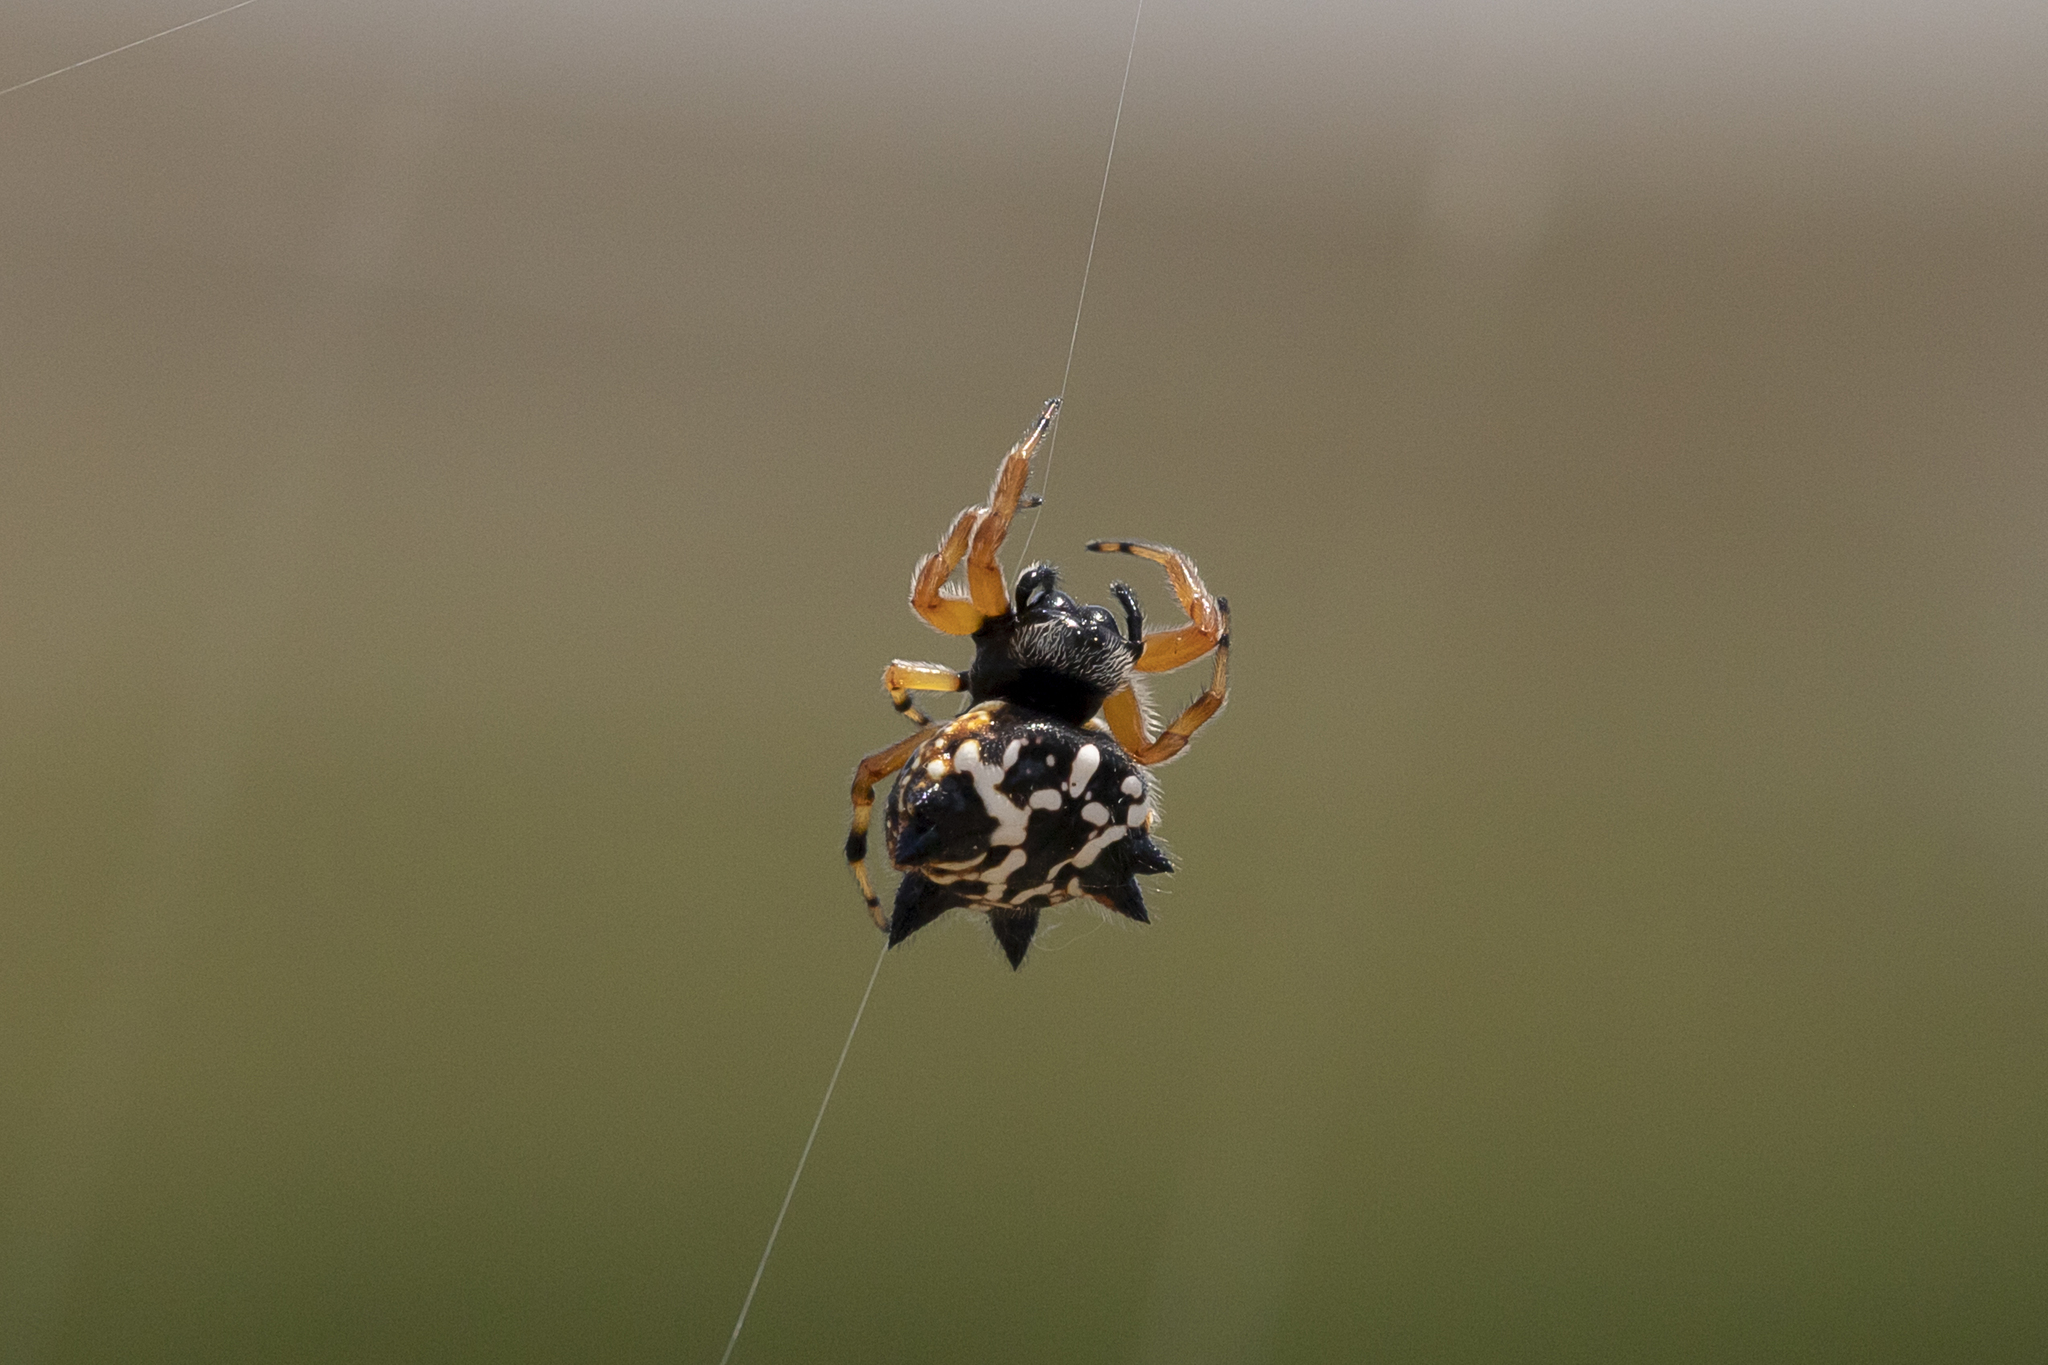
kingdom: Animalia
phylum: Arthropoda
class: Arachnida
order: Araneae
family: Araneidae
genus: Austracantha
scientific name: Austracantha minax
